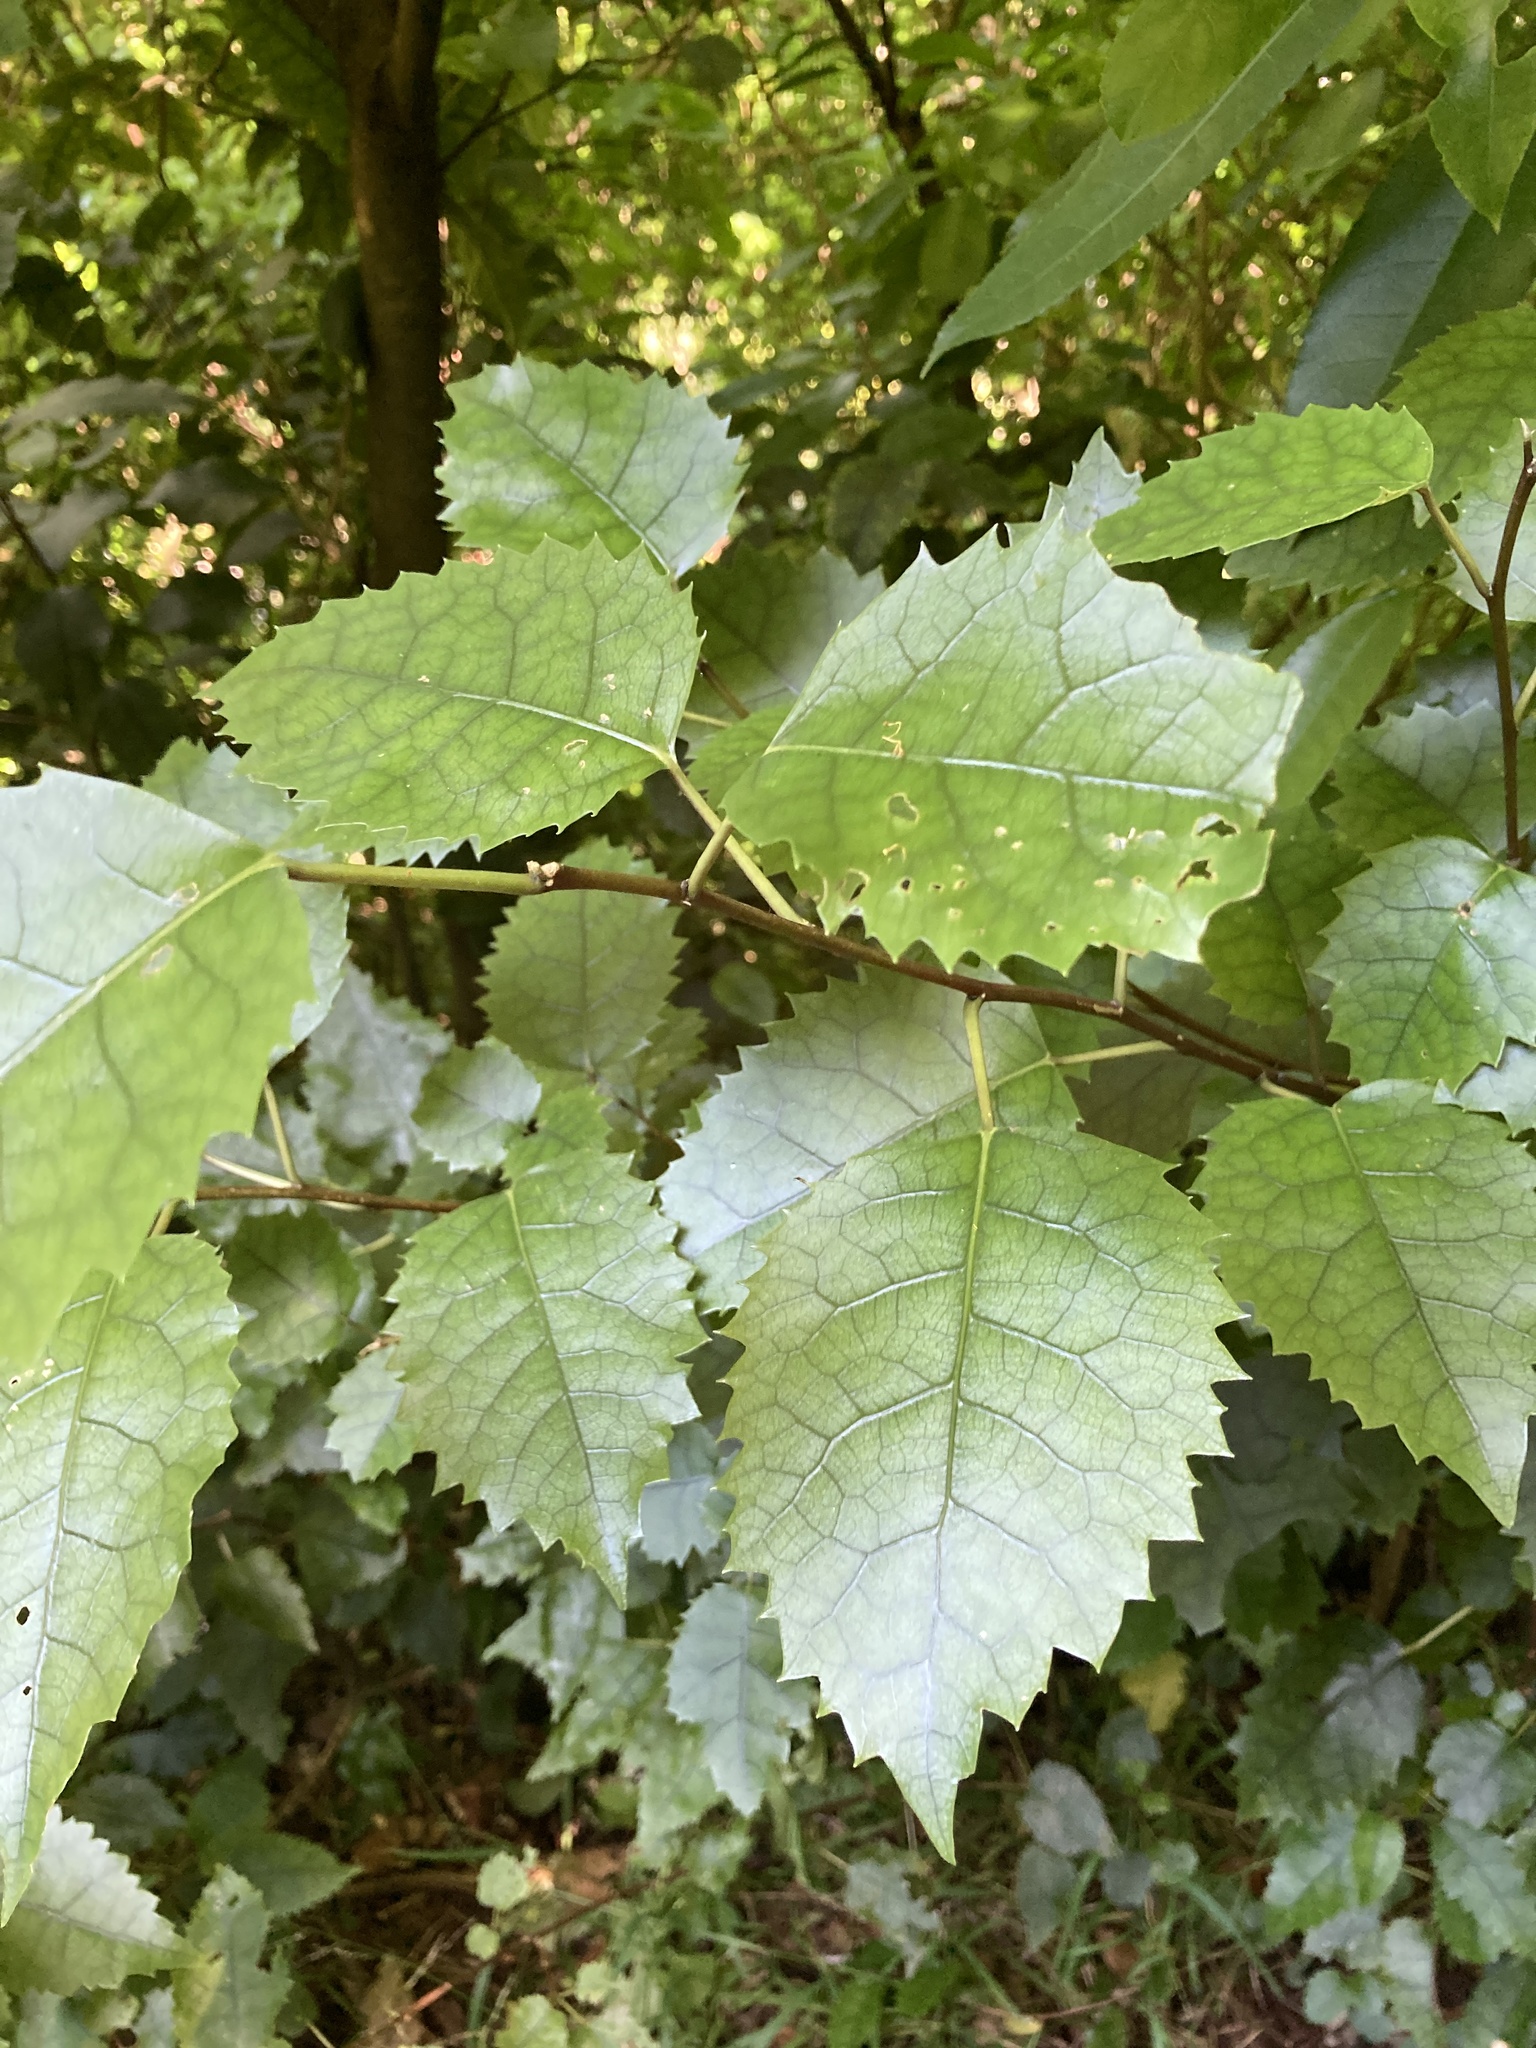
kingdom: Plantae
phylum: Tracheophyta
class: Magnoliopsida
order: Malvales
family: Malvaceae
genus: Hoheria
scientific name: Hoheria populnea
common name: Lacebark
